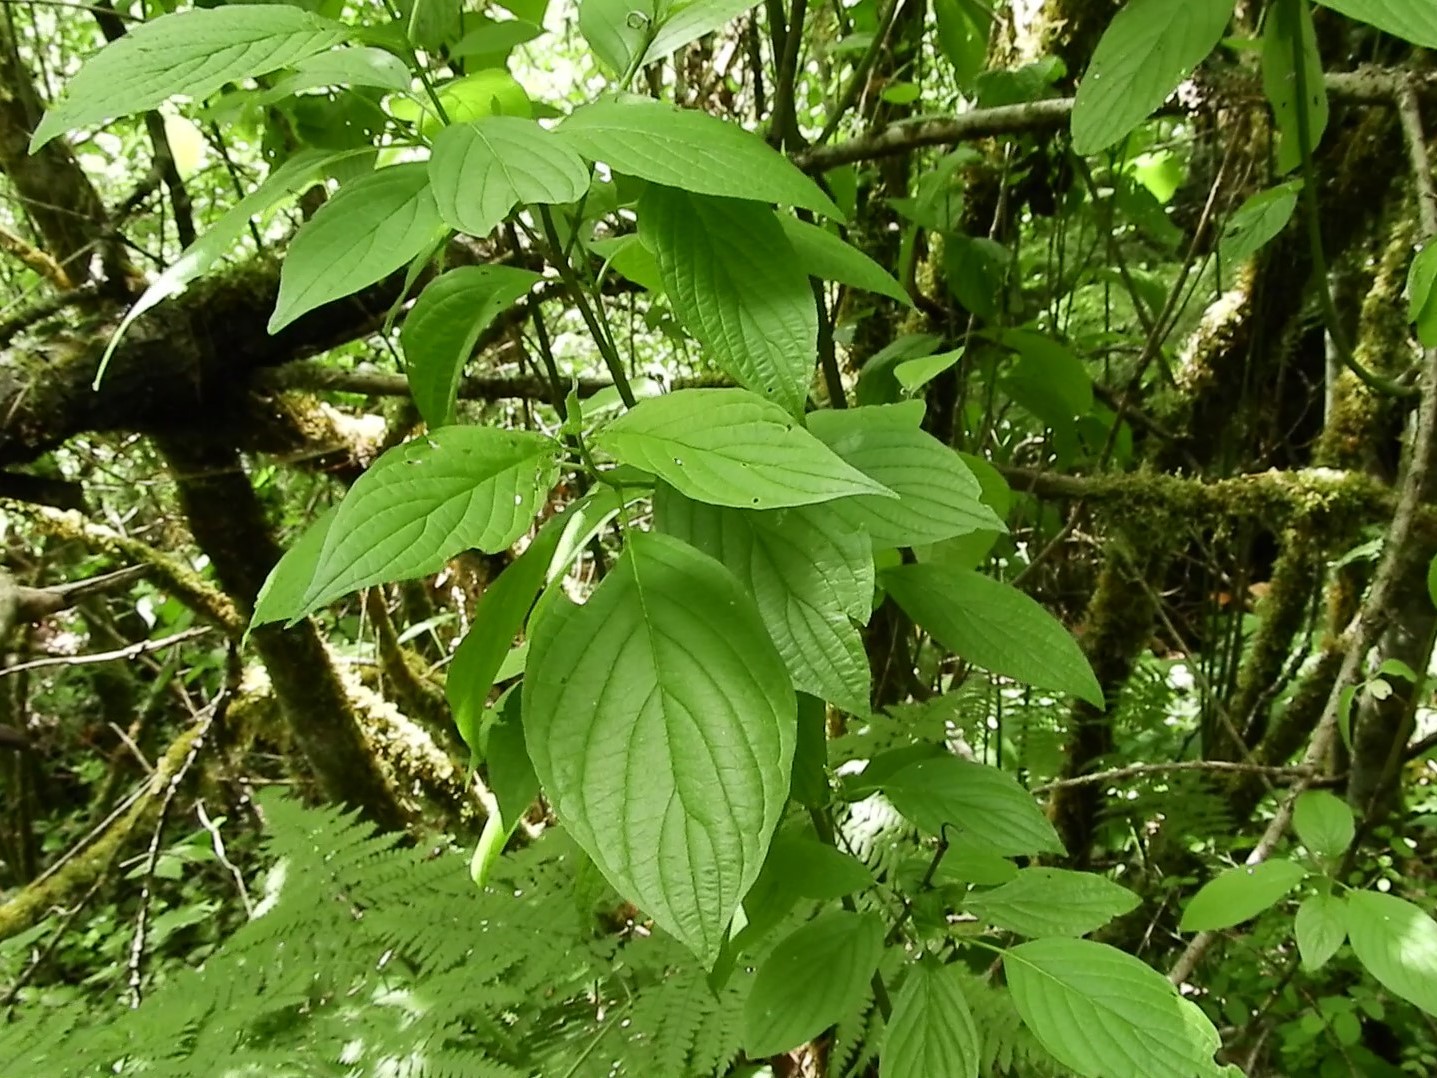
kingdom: Plantae
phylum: Tracheophyta
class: Magnoliopsida
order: Cornales
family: Cornaceae
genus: Cornus
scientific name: Cornus sericea
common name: Red-osier dogwood
